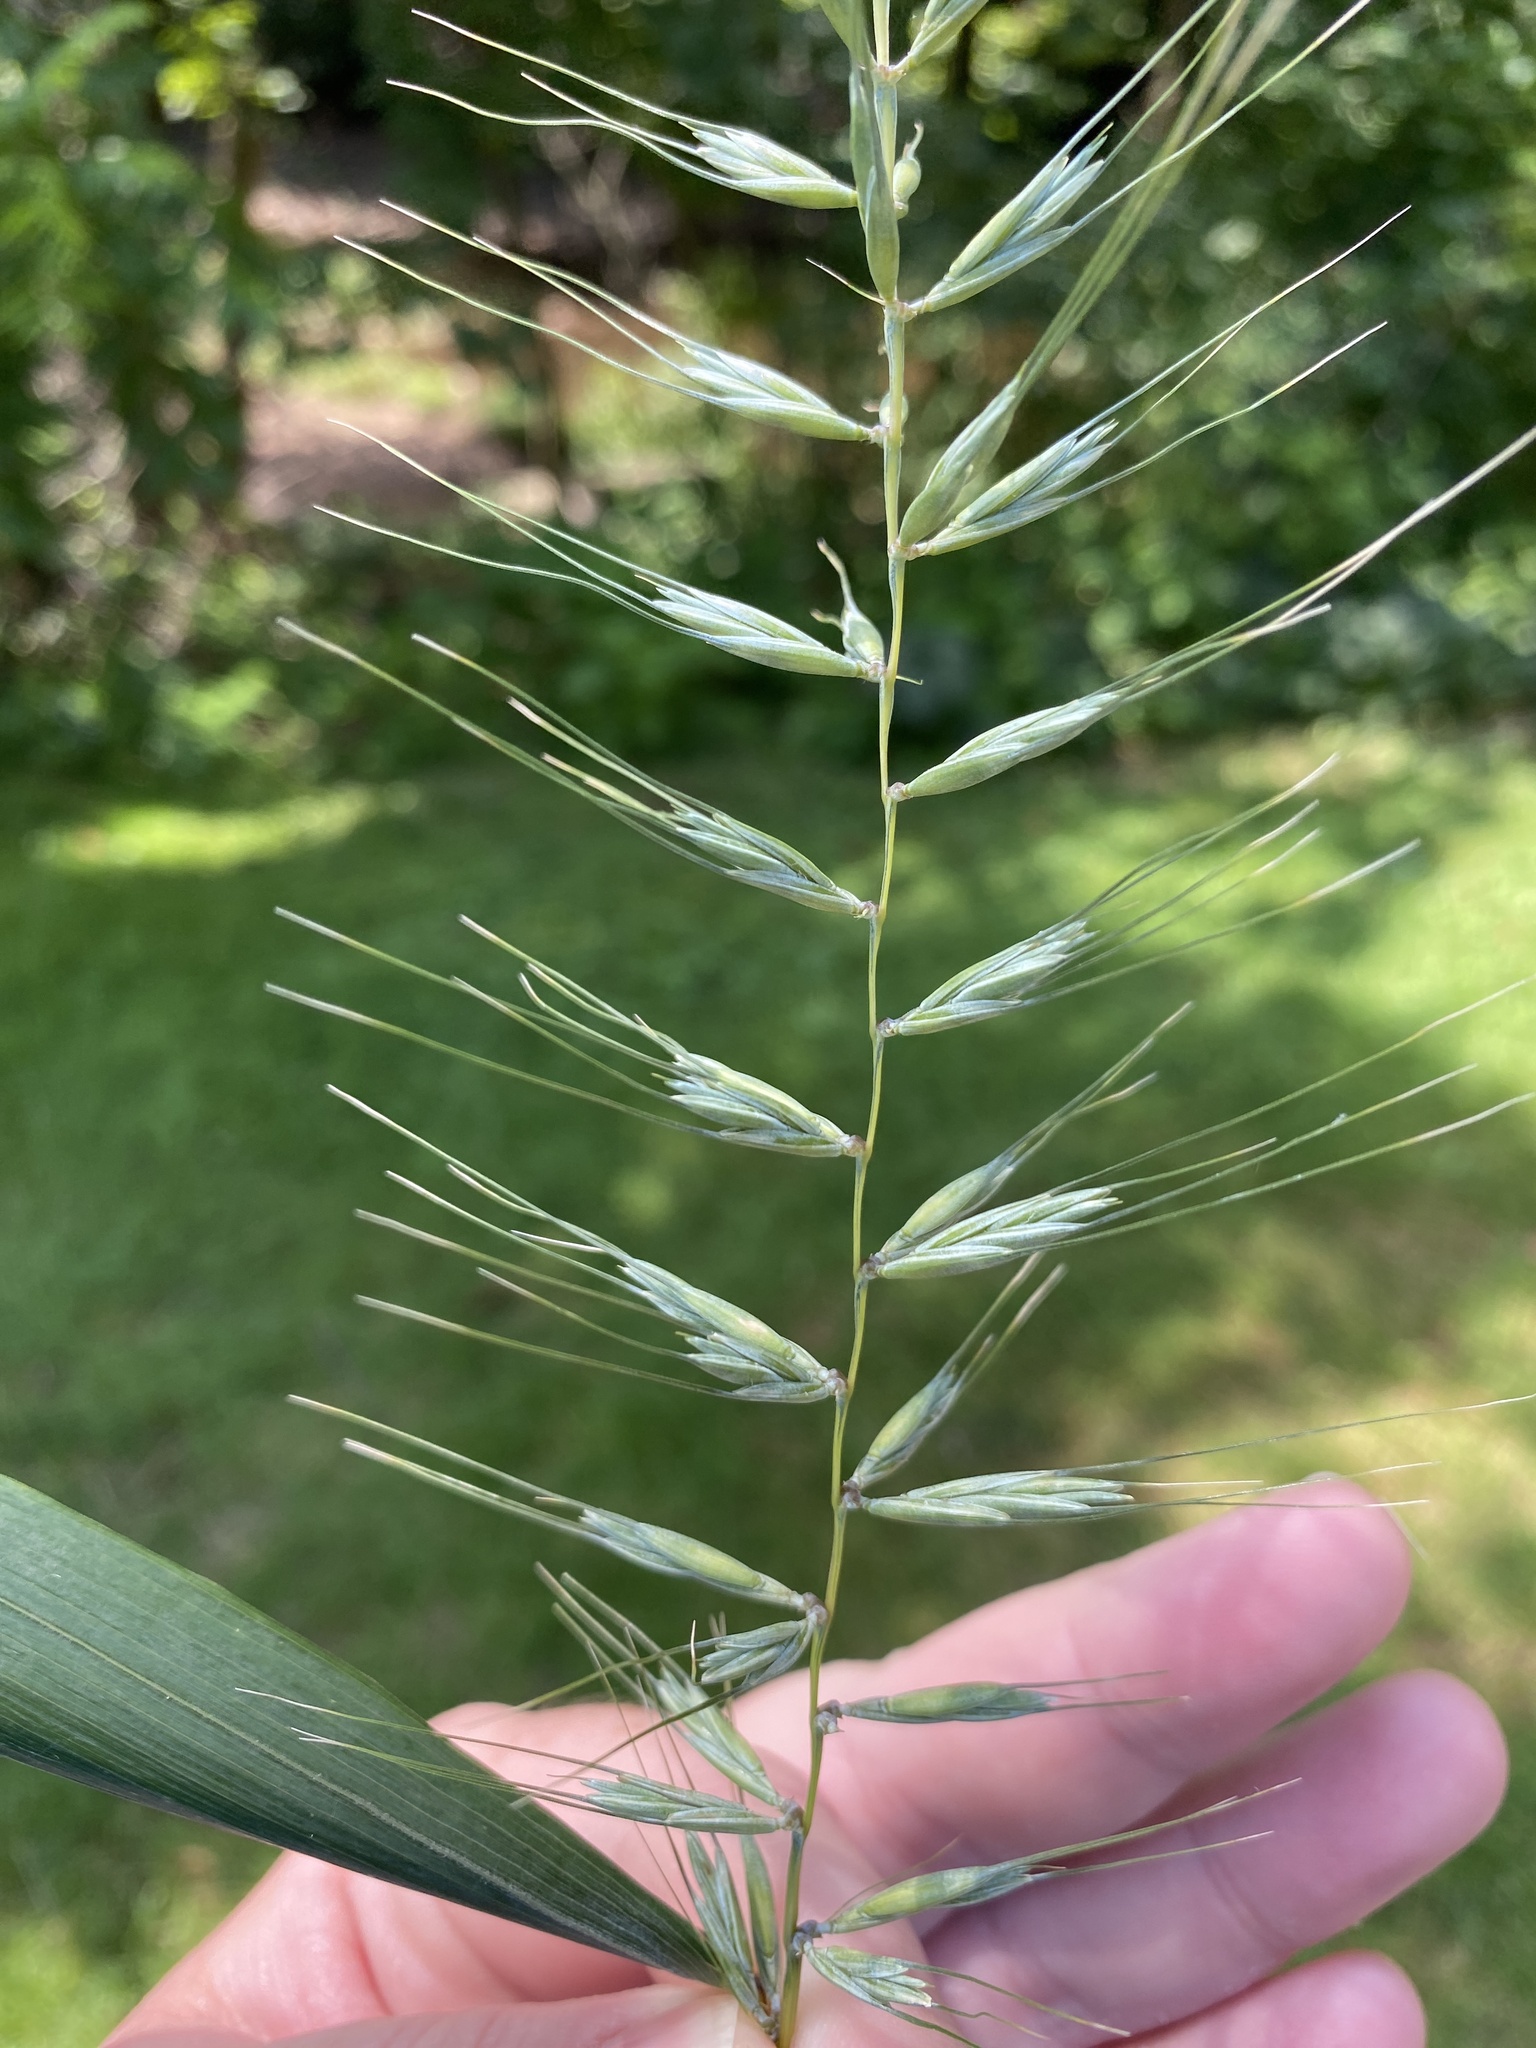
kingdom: Plantae
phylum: Tracheophyta
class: Liliopsida
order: Poales
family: Poaceae
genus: Elymus
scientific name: Elymus hystrix
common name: Bottlebrush grass
